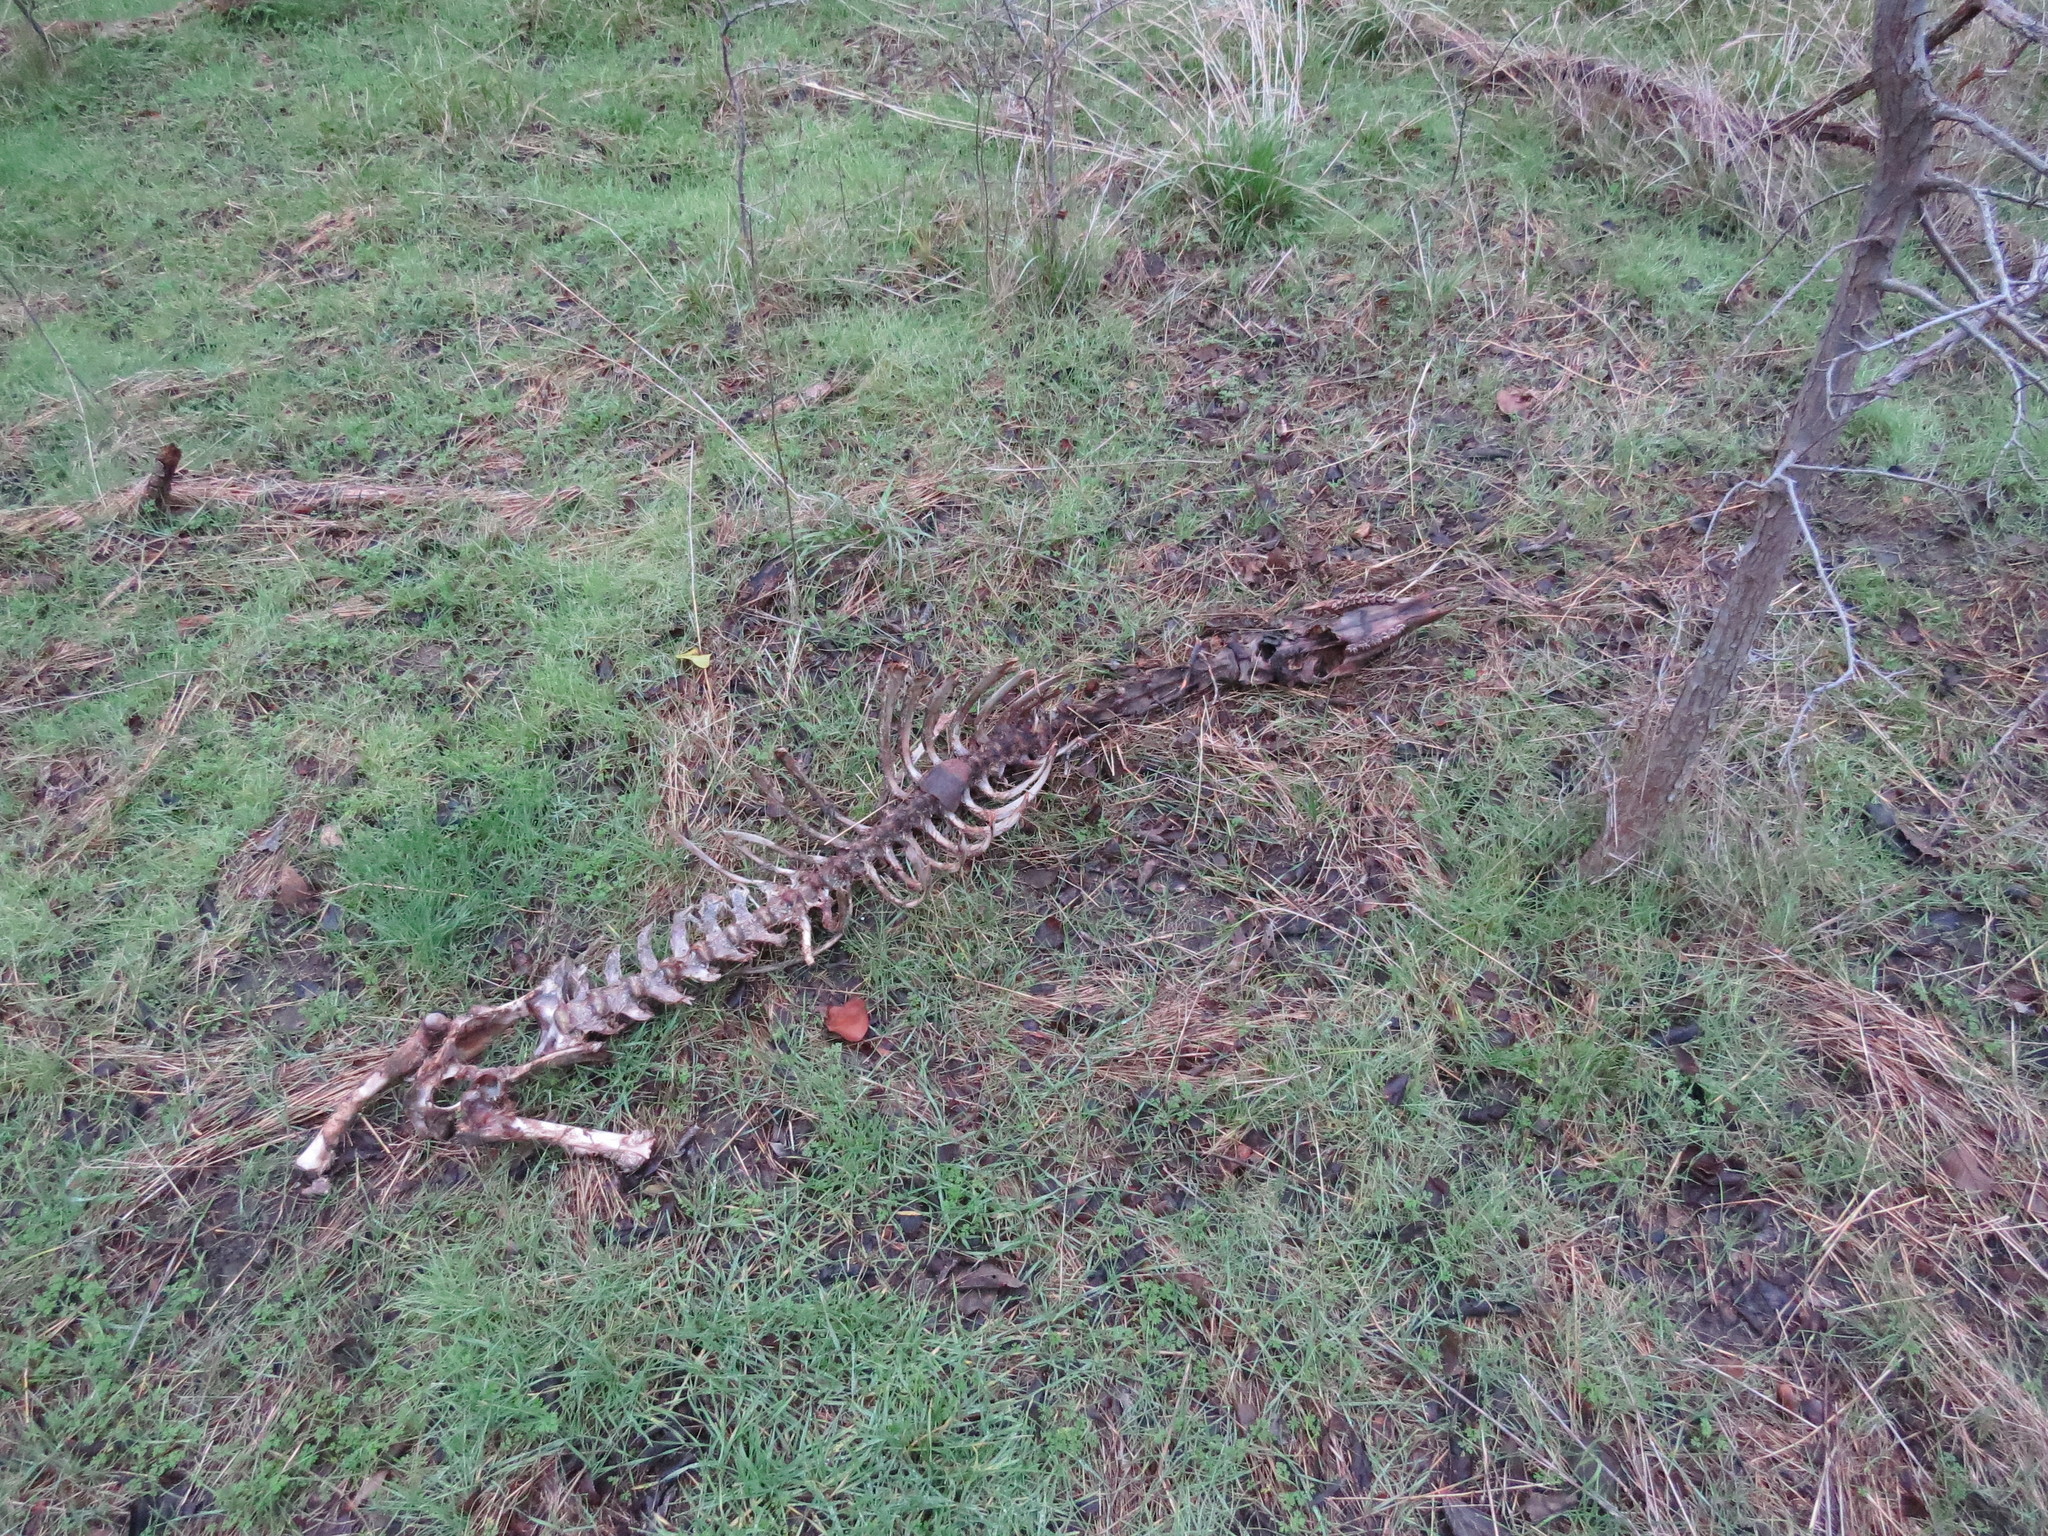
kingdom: Animalia
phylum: Chordata
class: Mammalia
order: Artiodactyla
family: Cervidae
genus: Odocoileus
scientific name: Odocoileus virginianus
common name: White-tailed deer
